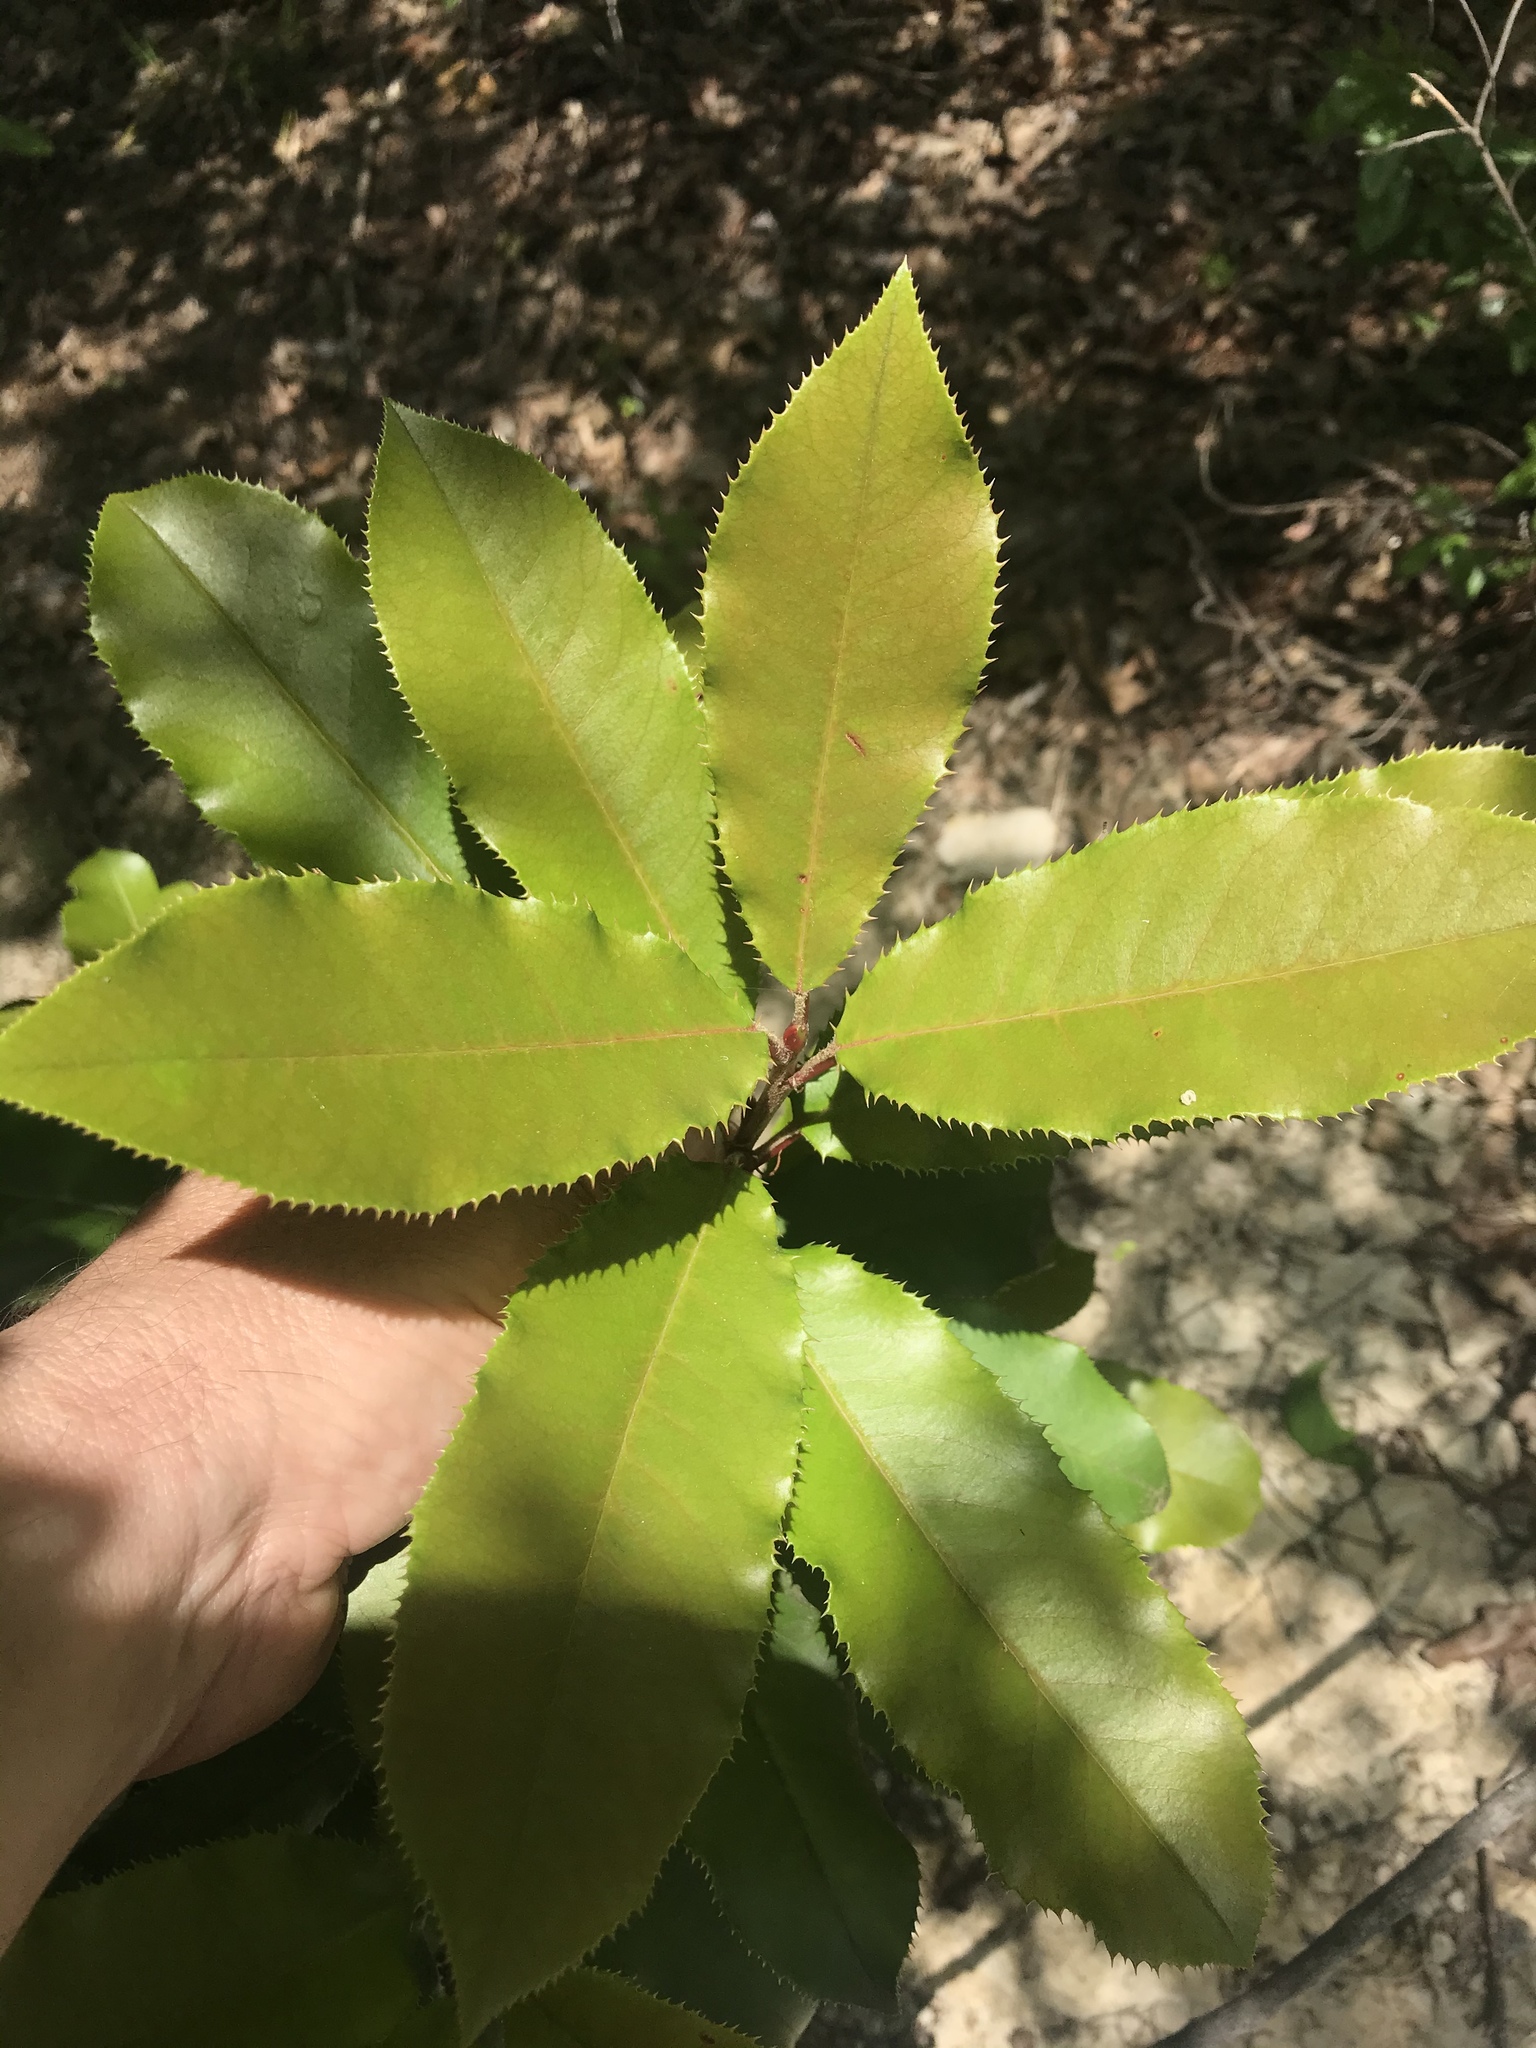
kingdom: Plantae
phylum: Tracheophyta
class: Magnoliopsida
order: Rosales
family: Rosaceae
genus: Photinia
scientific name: Photinia serratifolia
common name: Taiwanese photinia
